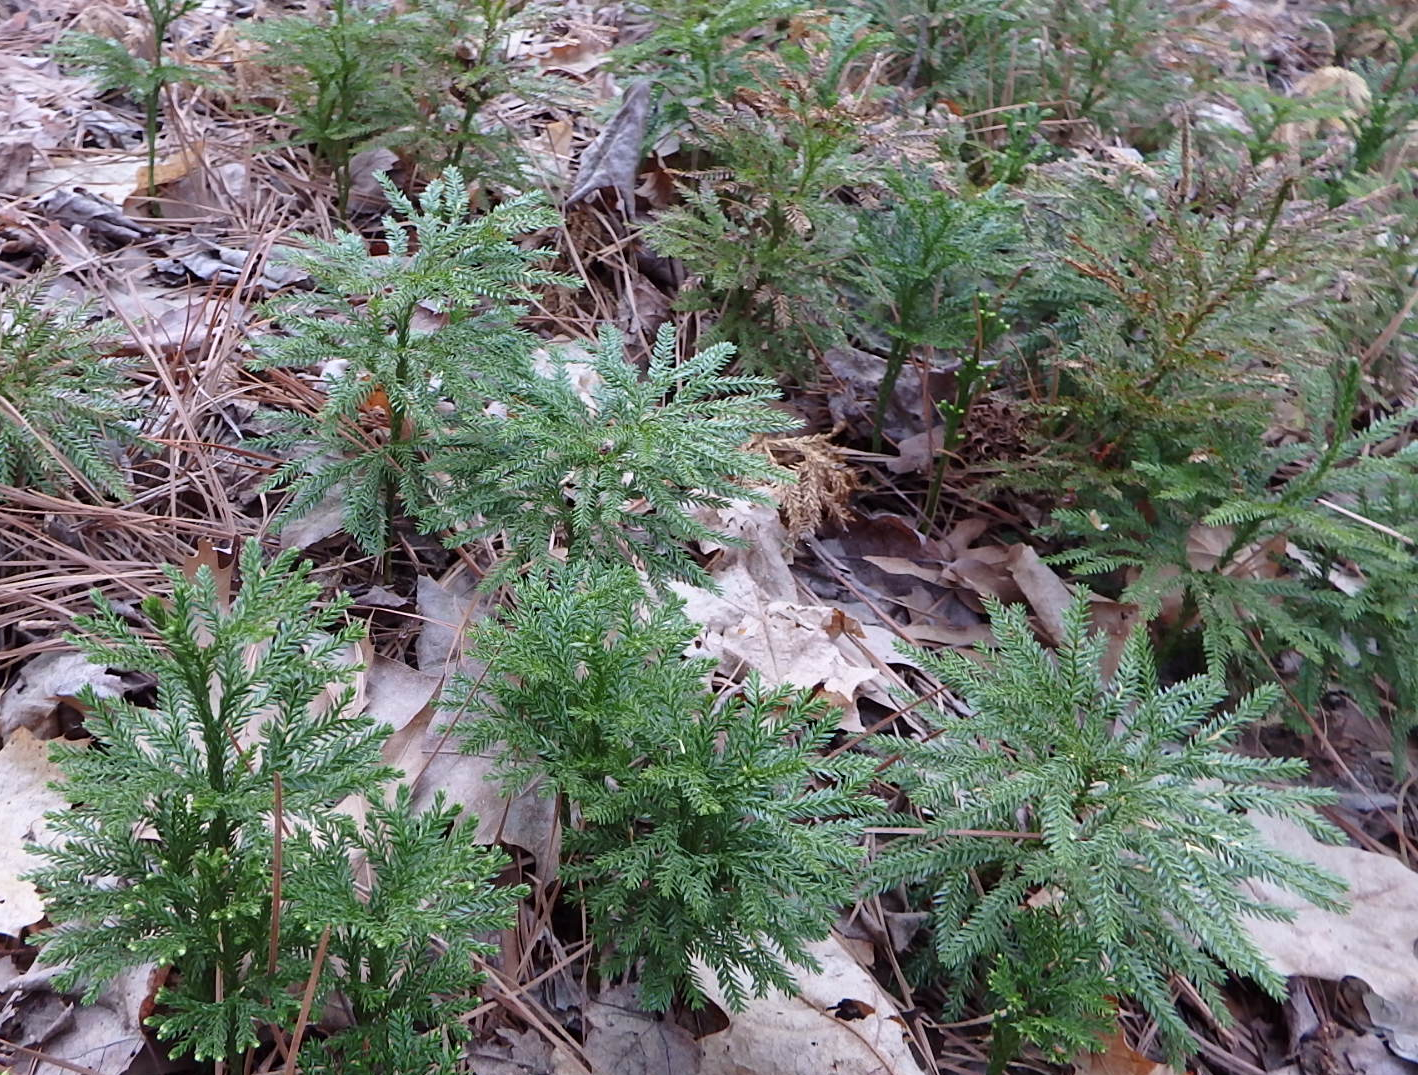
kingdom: Plantae
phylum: Tracheophyta
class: Lycopodiopsida
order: Lycopodiales
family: Lycopodiaceae
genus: Dendrolycopodium
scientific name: Dendrolycopodium obscurum
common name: Common ground-pine
